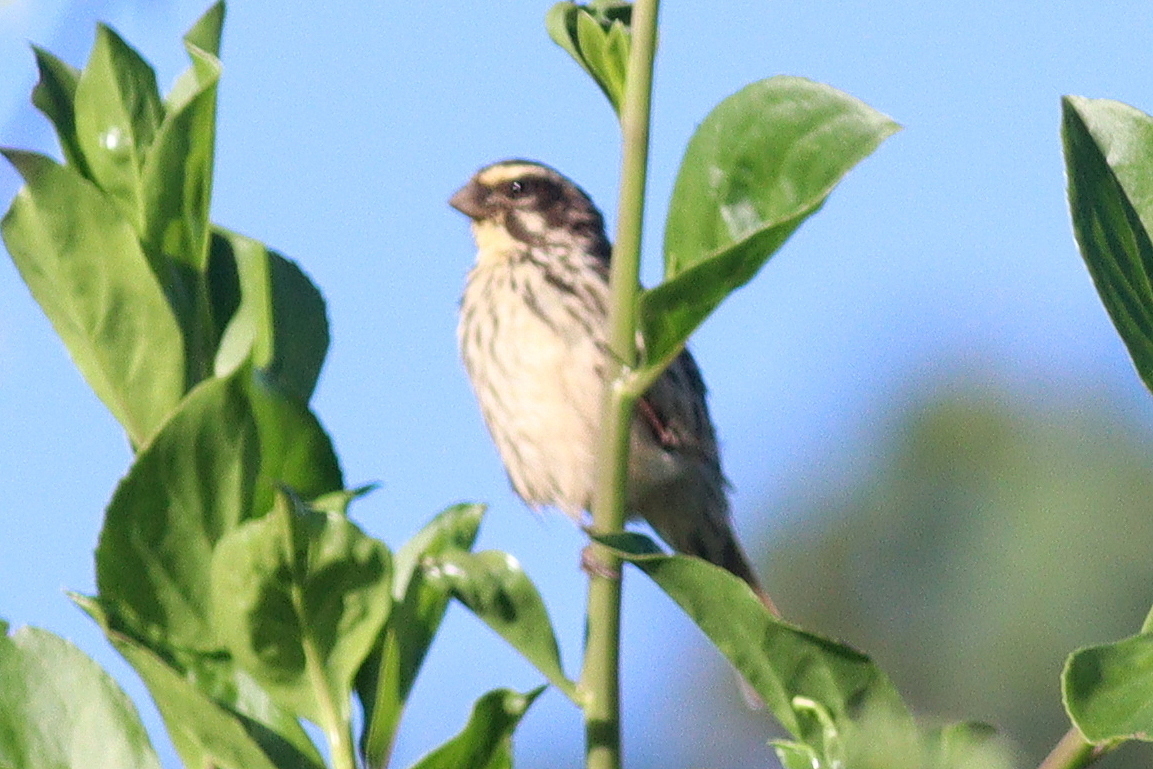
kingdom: Animalia
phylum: Chordata
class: Aves
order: Passeriformes
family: Fringillidae
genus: Crithagra
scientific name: Crithagra striolata
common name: Streaky seedeater
